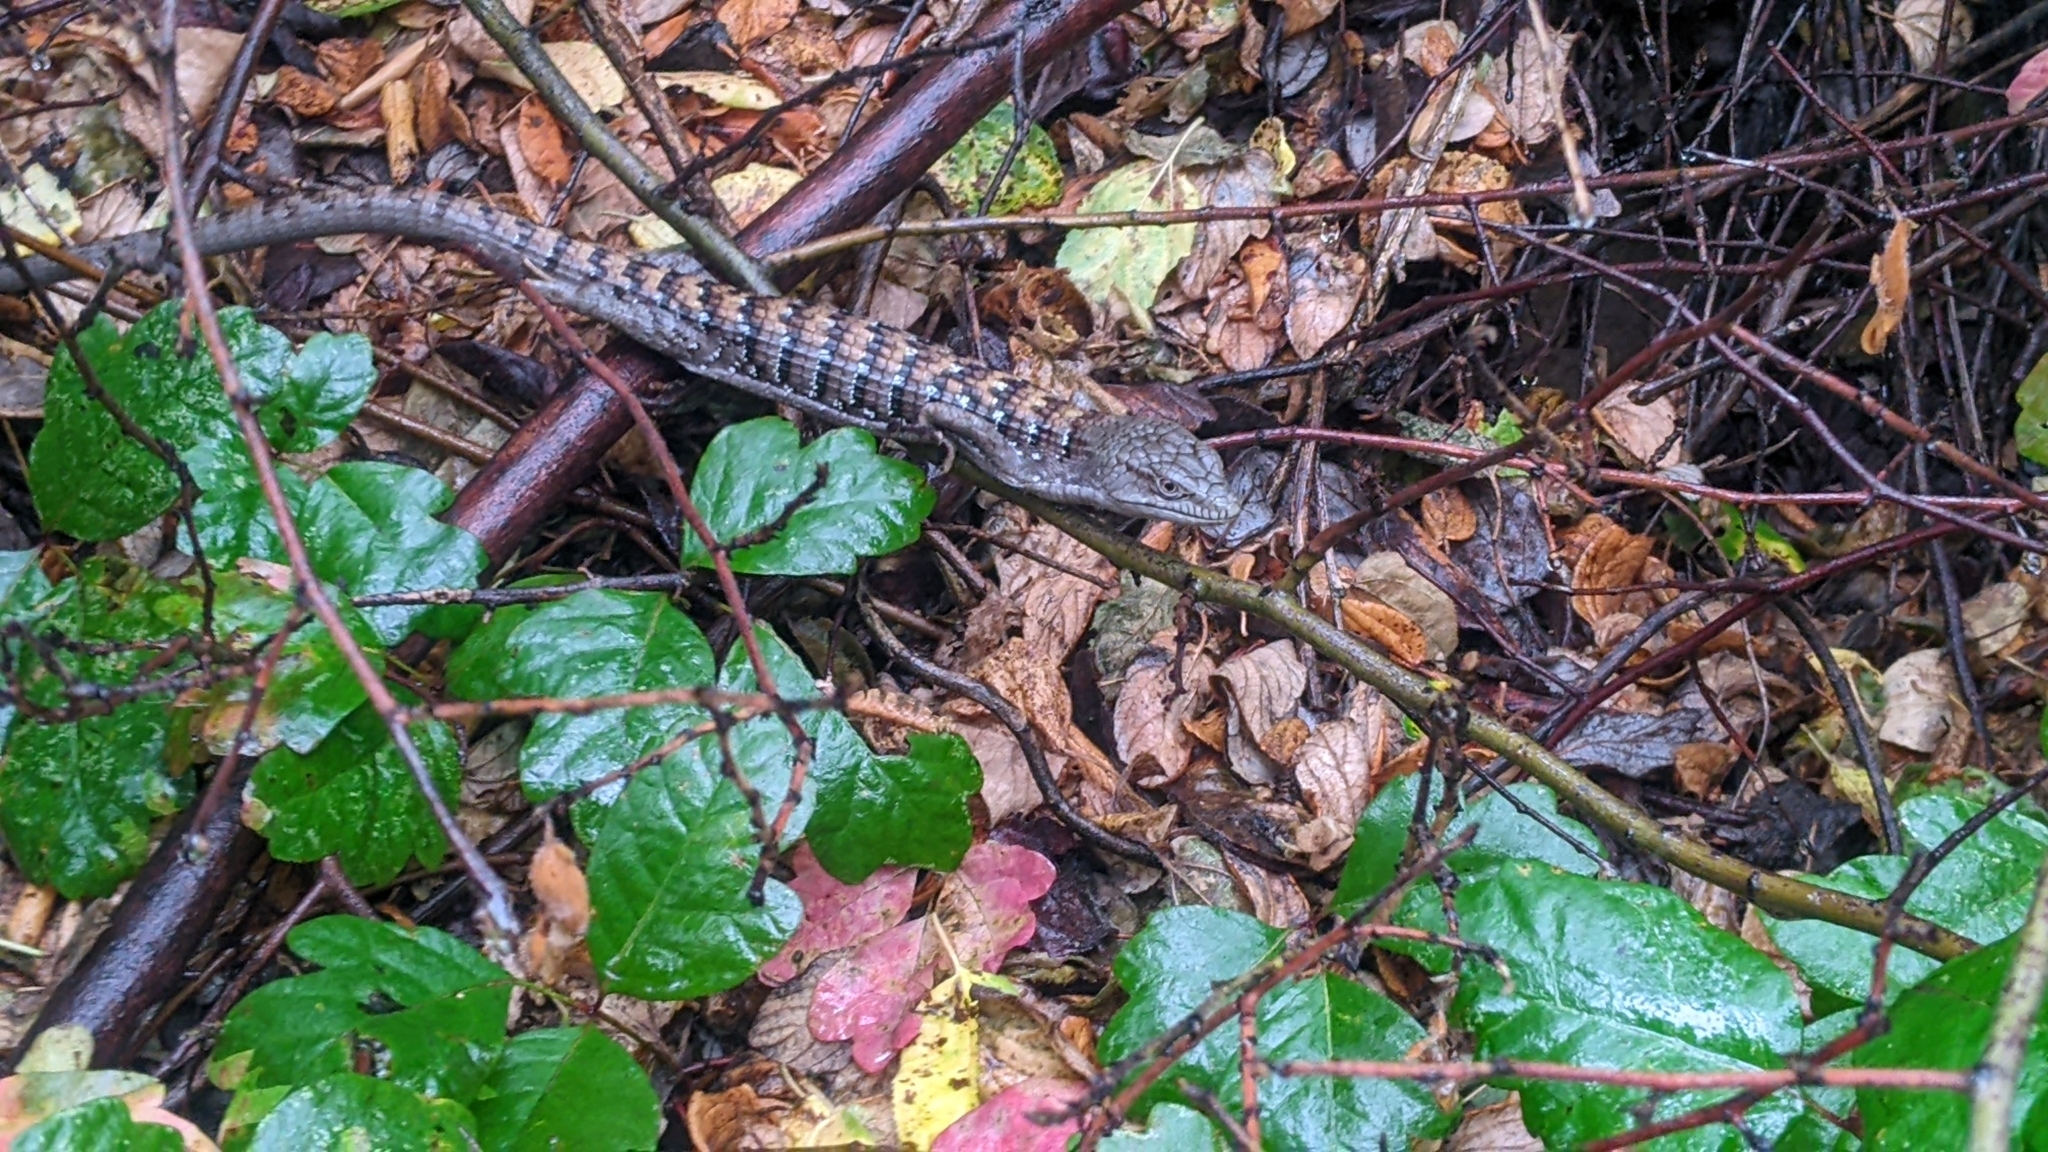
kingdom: Animalia
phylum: Chordata
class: Squamata
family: Anguidae
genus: Elgaria
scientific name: Elgaria multicarinata
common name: Southern alligator lizard
